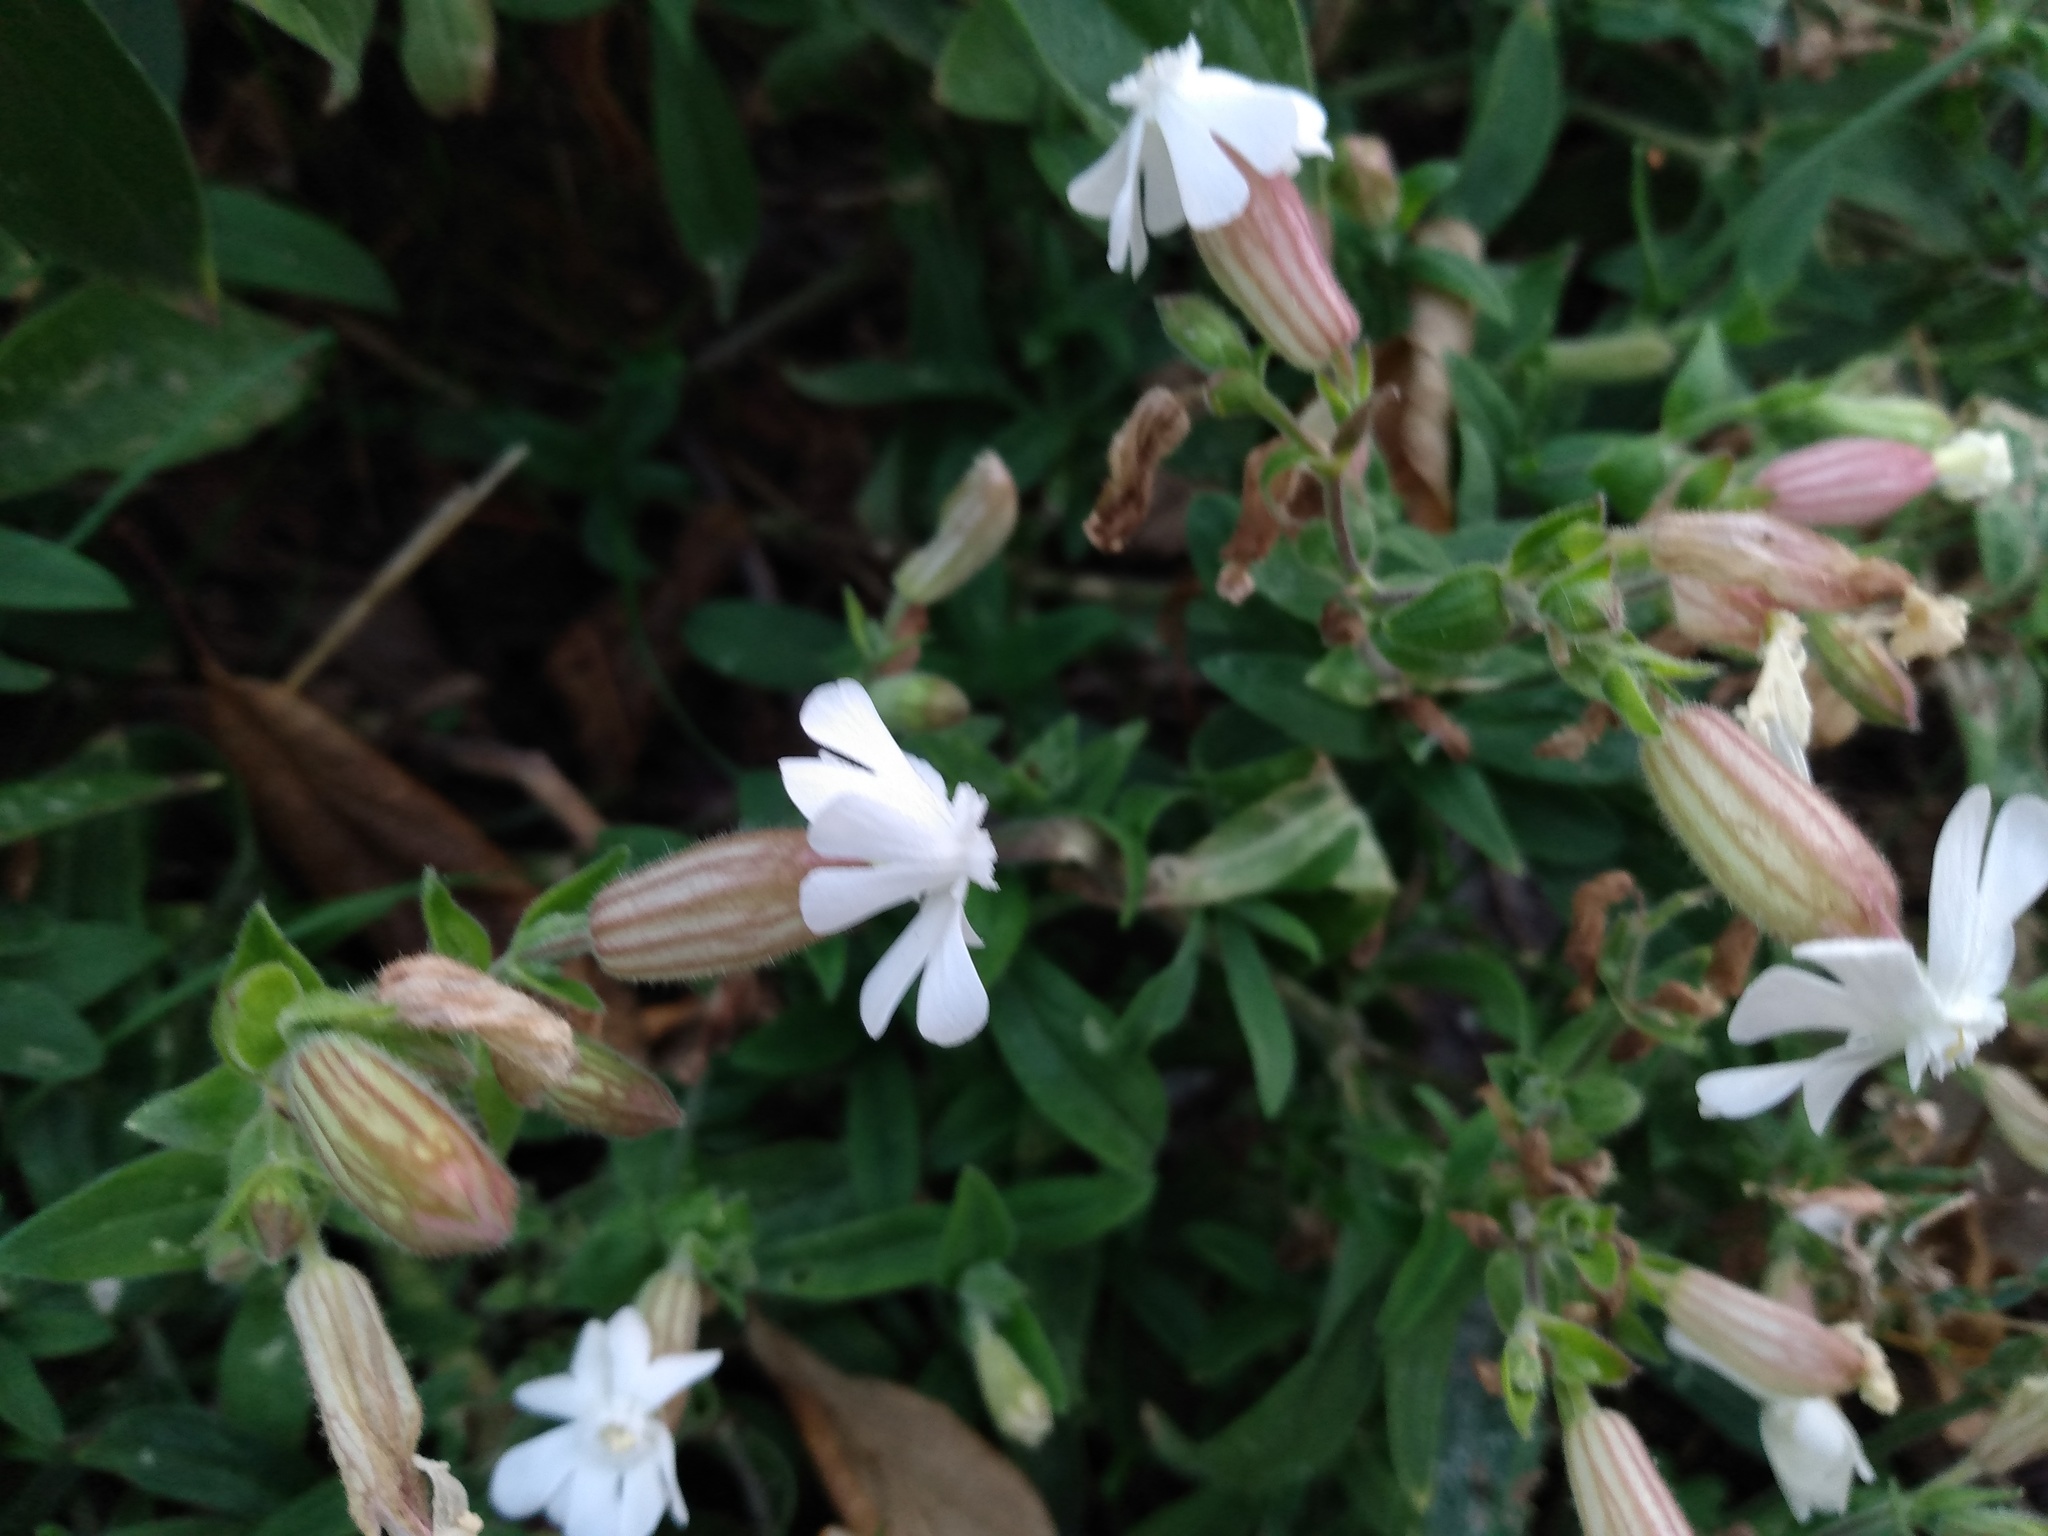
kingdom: Plantae
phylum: Tracheophyta
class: Magnoliopsida
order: Caryophyllales
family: Caryophyllaceae
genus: Silene
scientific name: Silene latifolia
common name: White campion
